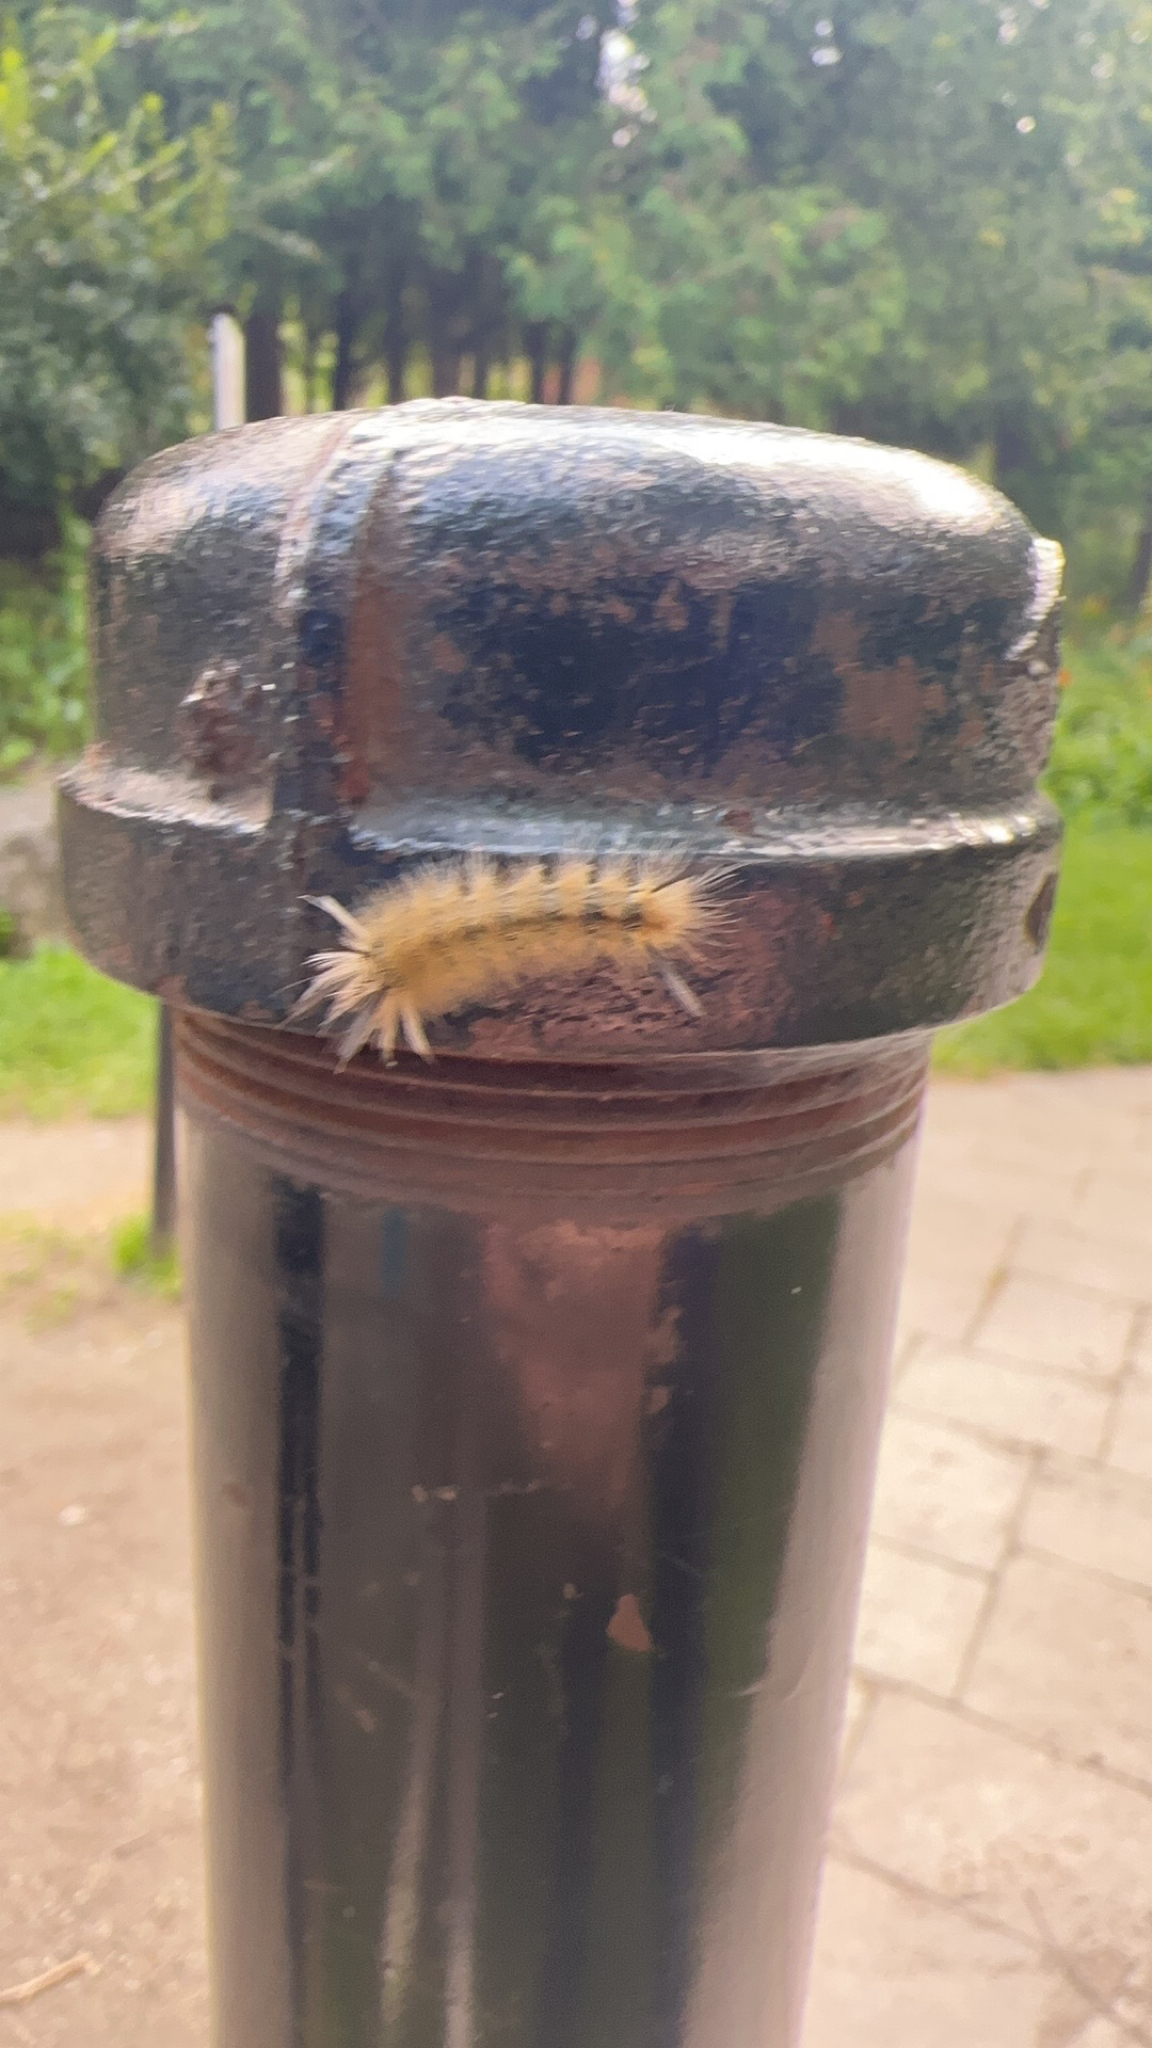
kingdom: Animalia
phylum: Arthropoda
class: Insecta
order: Lepidoptera
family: Erebidae
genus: Halysidota
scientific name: Halysidota tessellaris
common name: Banded tussock moth
